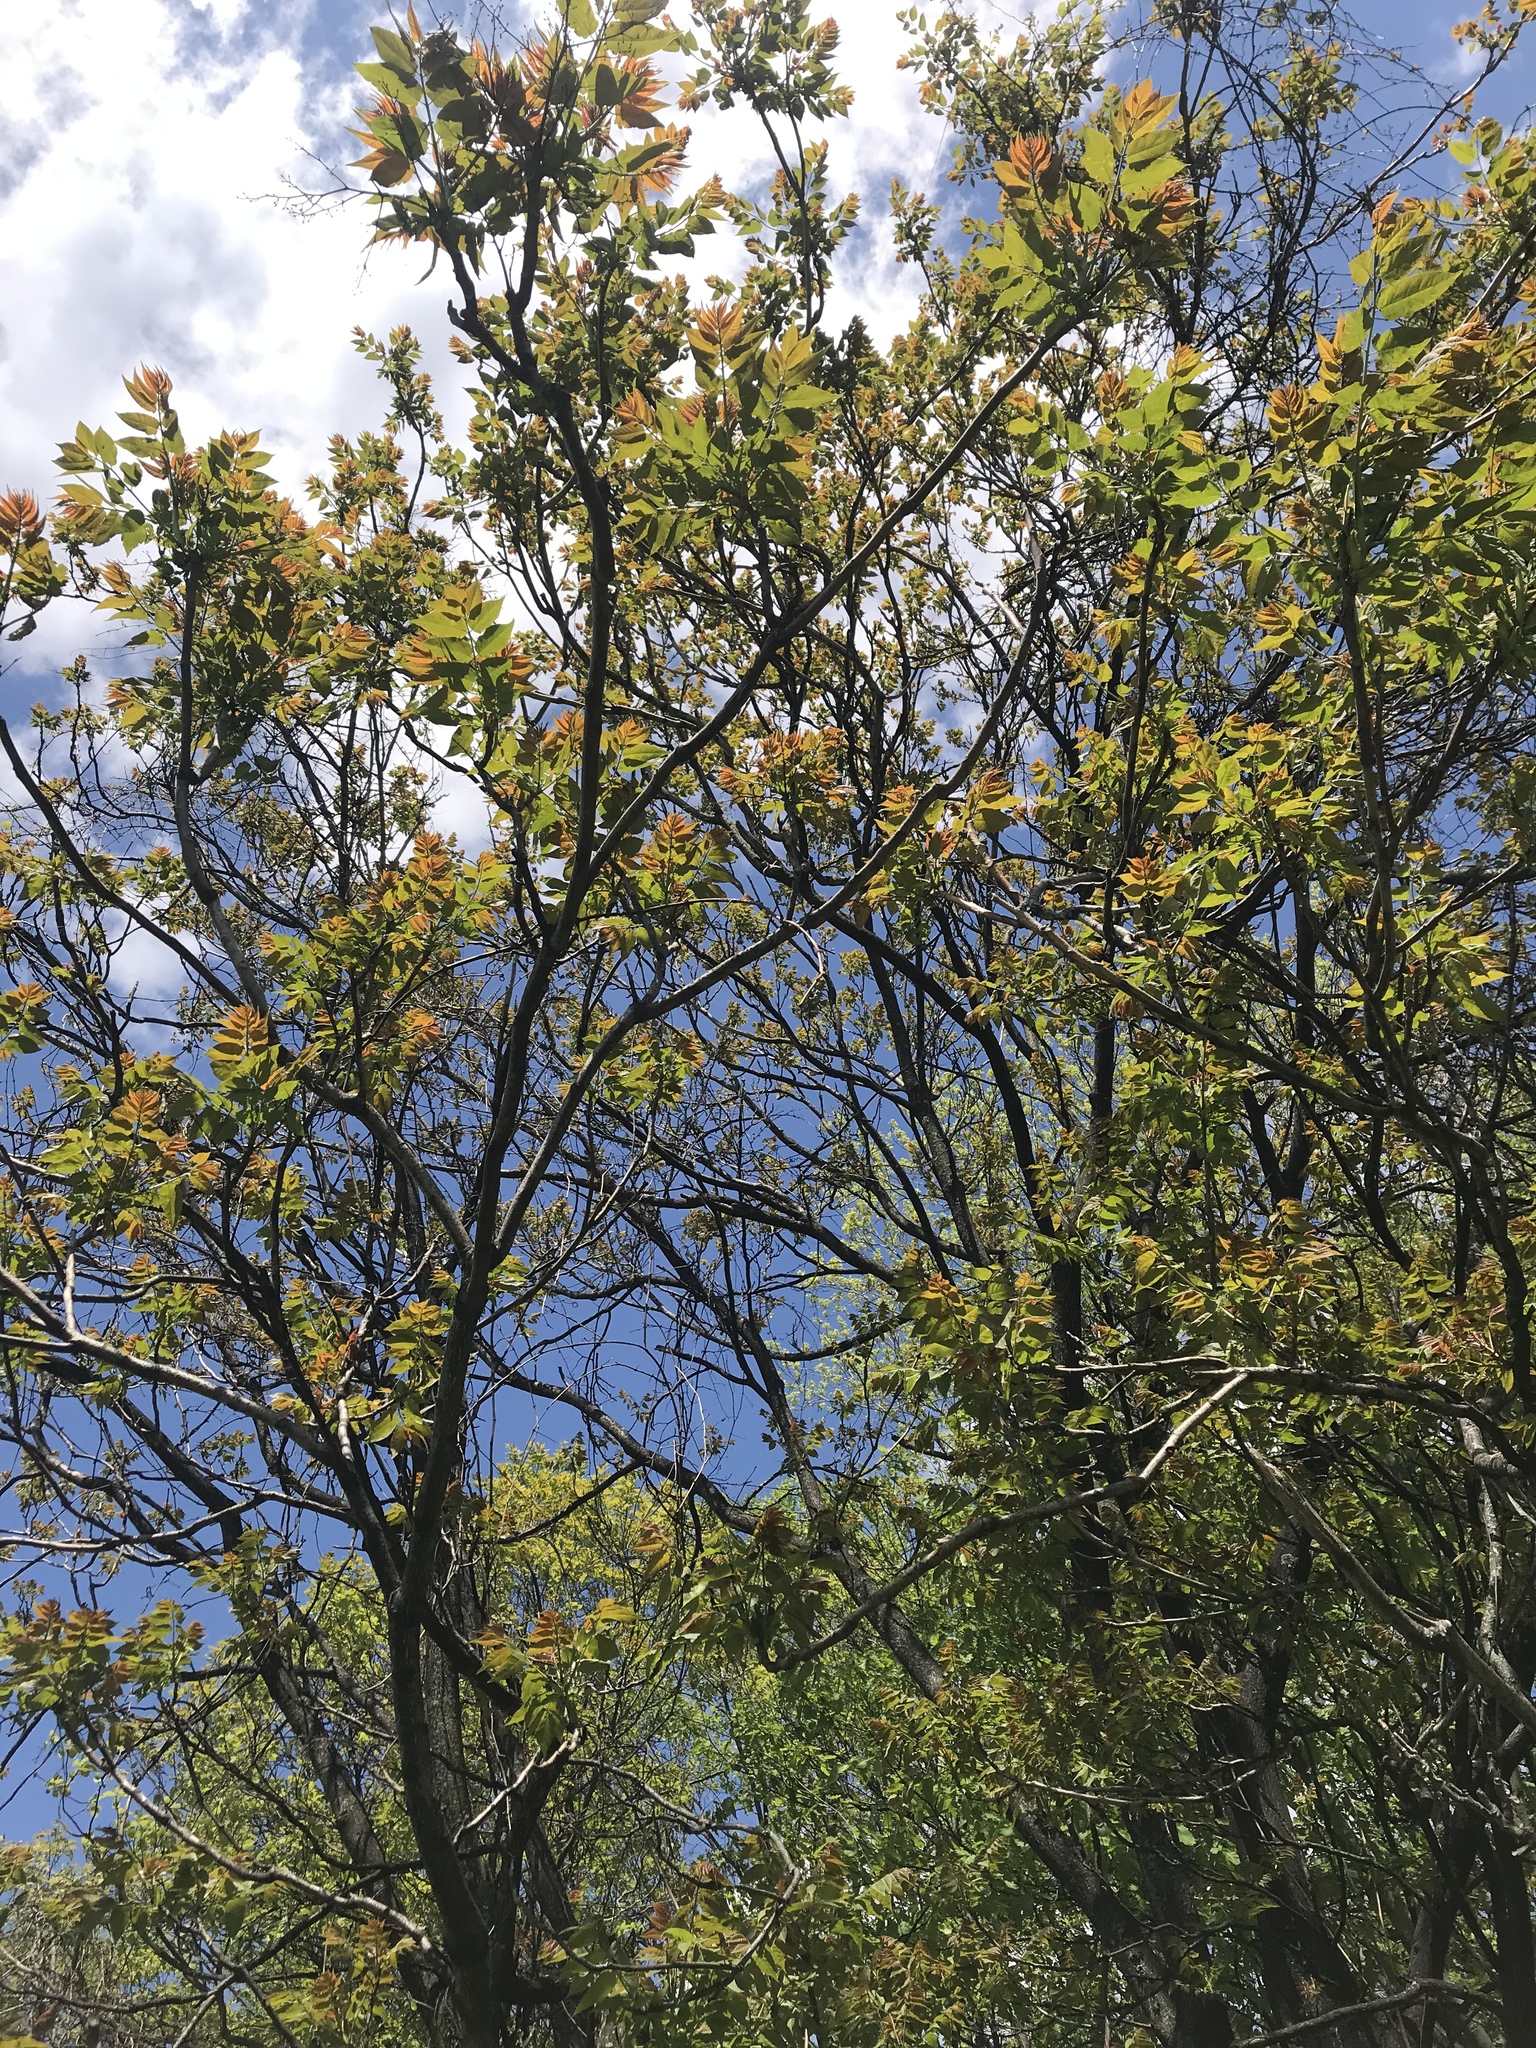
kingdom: Plantae
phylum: Tracheophyta
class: Magnoliopsida
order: Sapindales
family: Simaroubaceae
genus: Ailanthus
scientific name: Ailanthus altissima
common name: Tree-of-heaven
